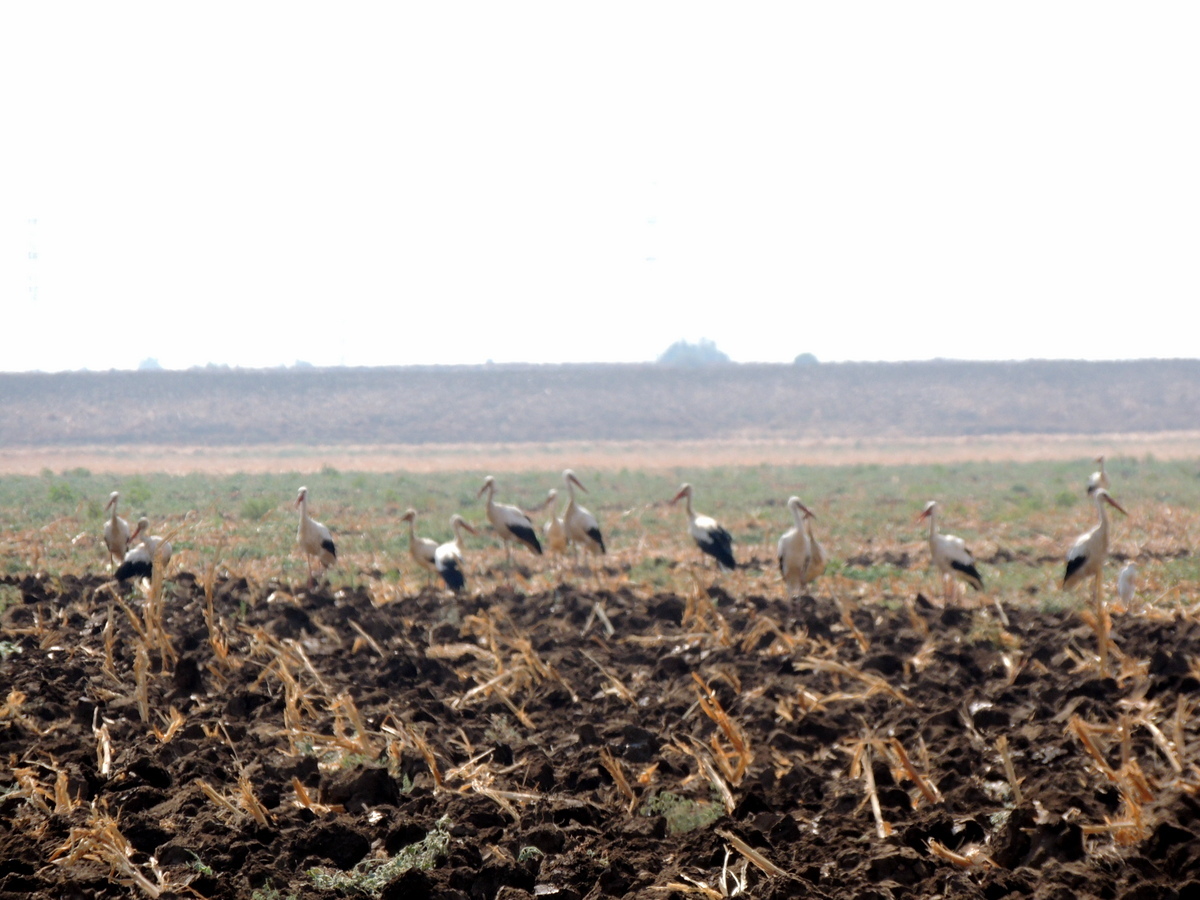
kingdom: Animalia
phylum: Chordata
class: Aves
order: Ciconiiformes
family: Ciconiidae
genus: Ciconia
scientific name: Ciconia ciconia
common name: White stork
